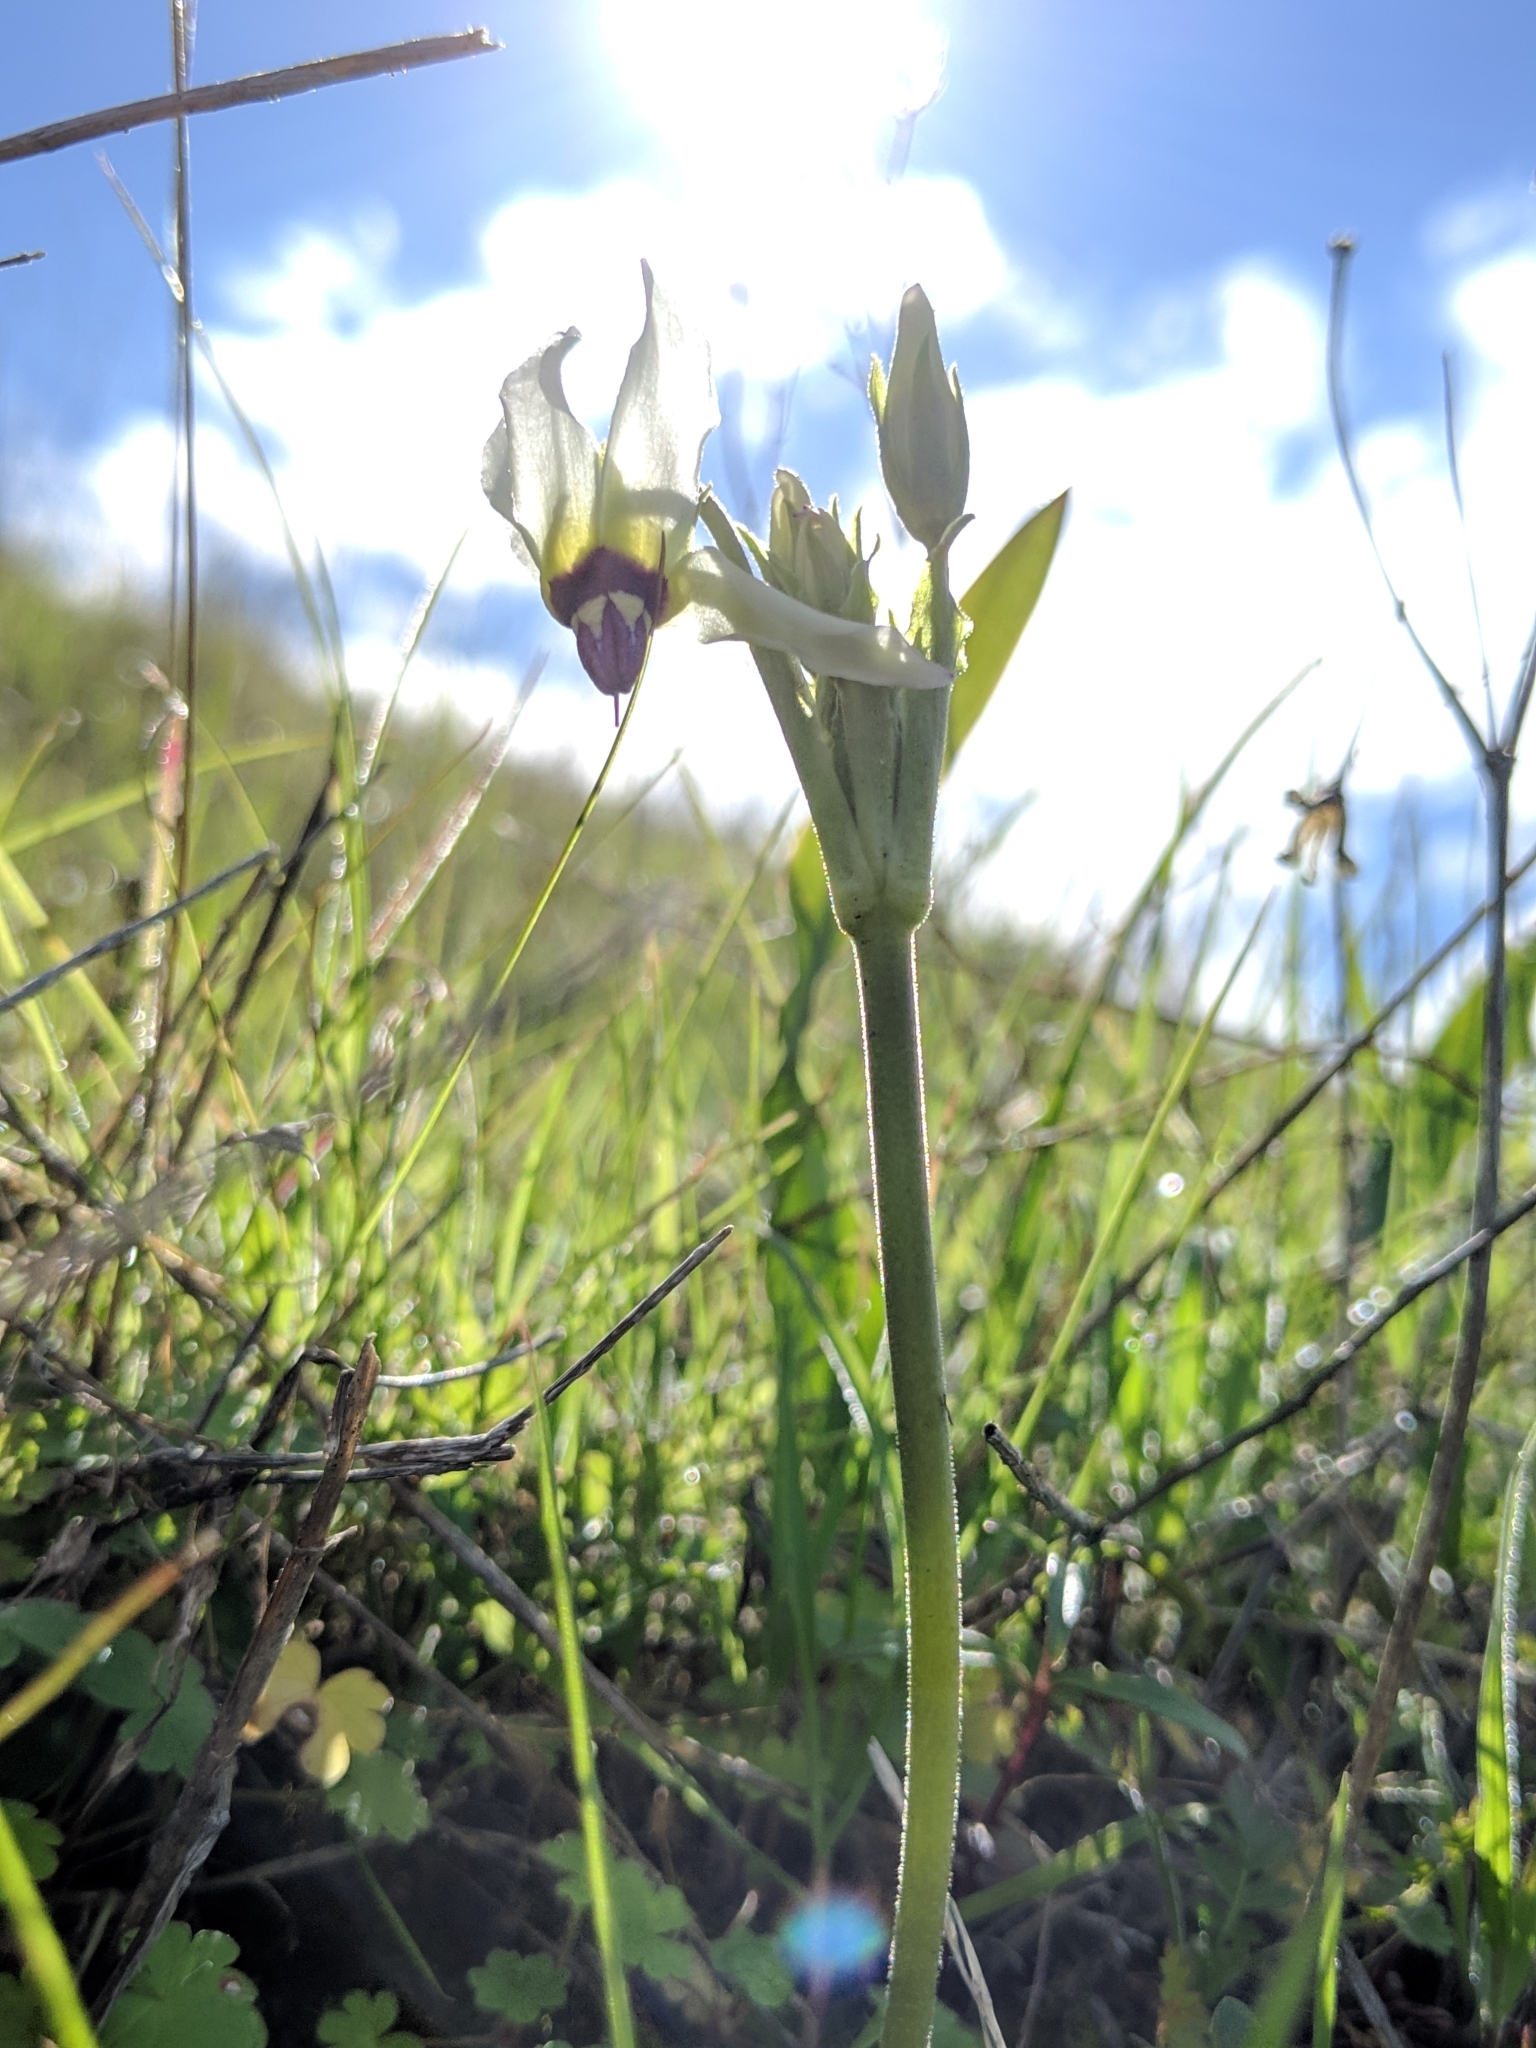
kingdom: Plantae
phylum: Tracheophyta
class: Magnoliopsida
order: Ericales
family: Primulaceae
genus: Dodecatheon
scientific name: Dodecatheon clevelandii
